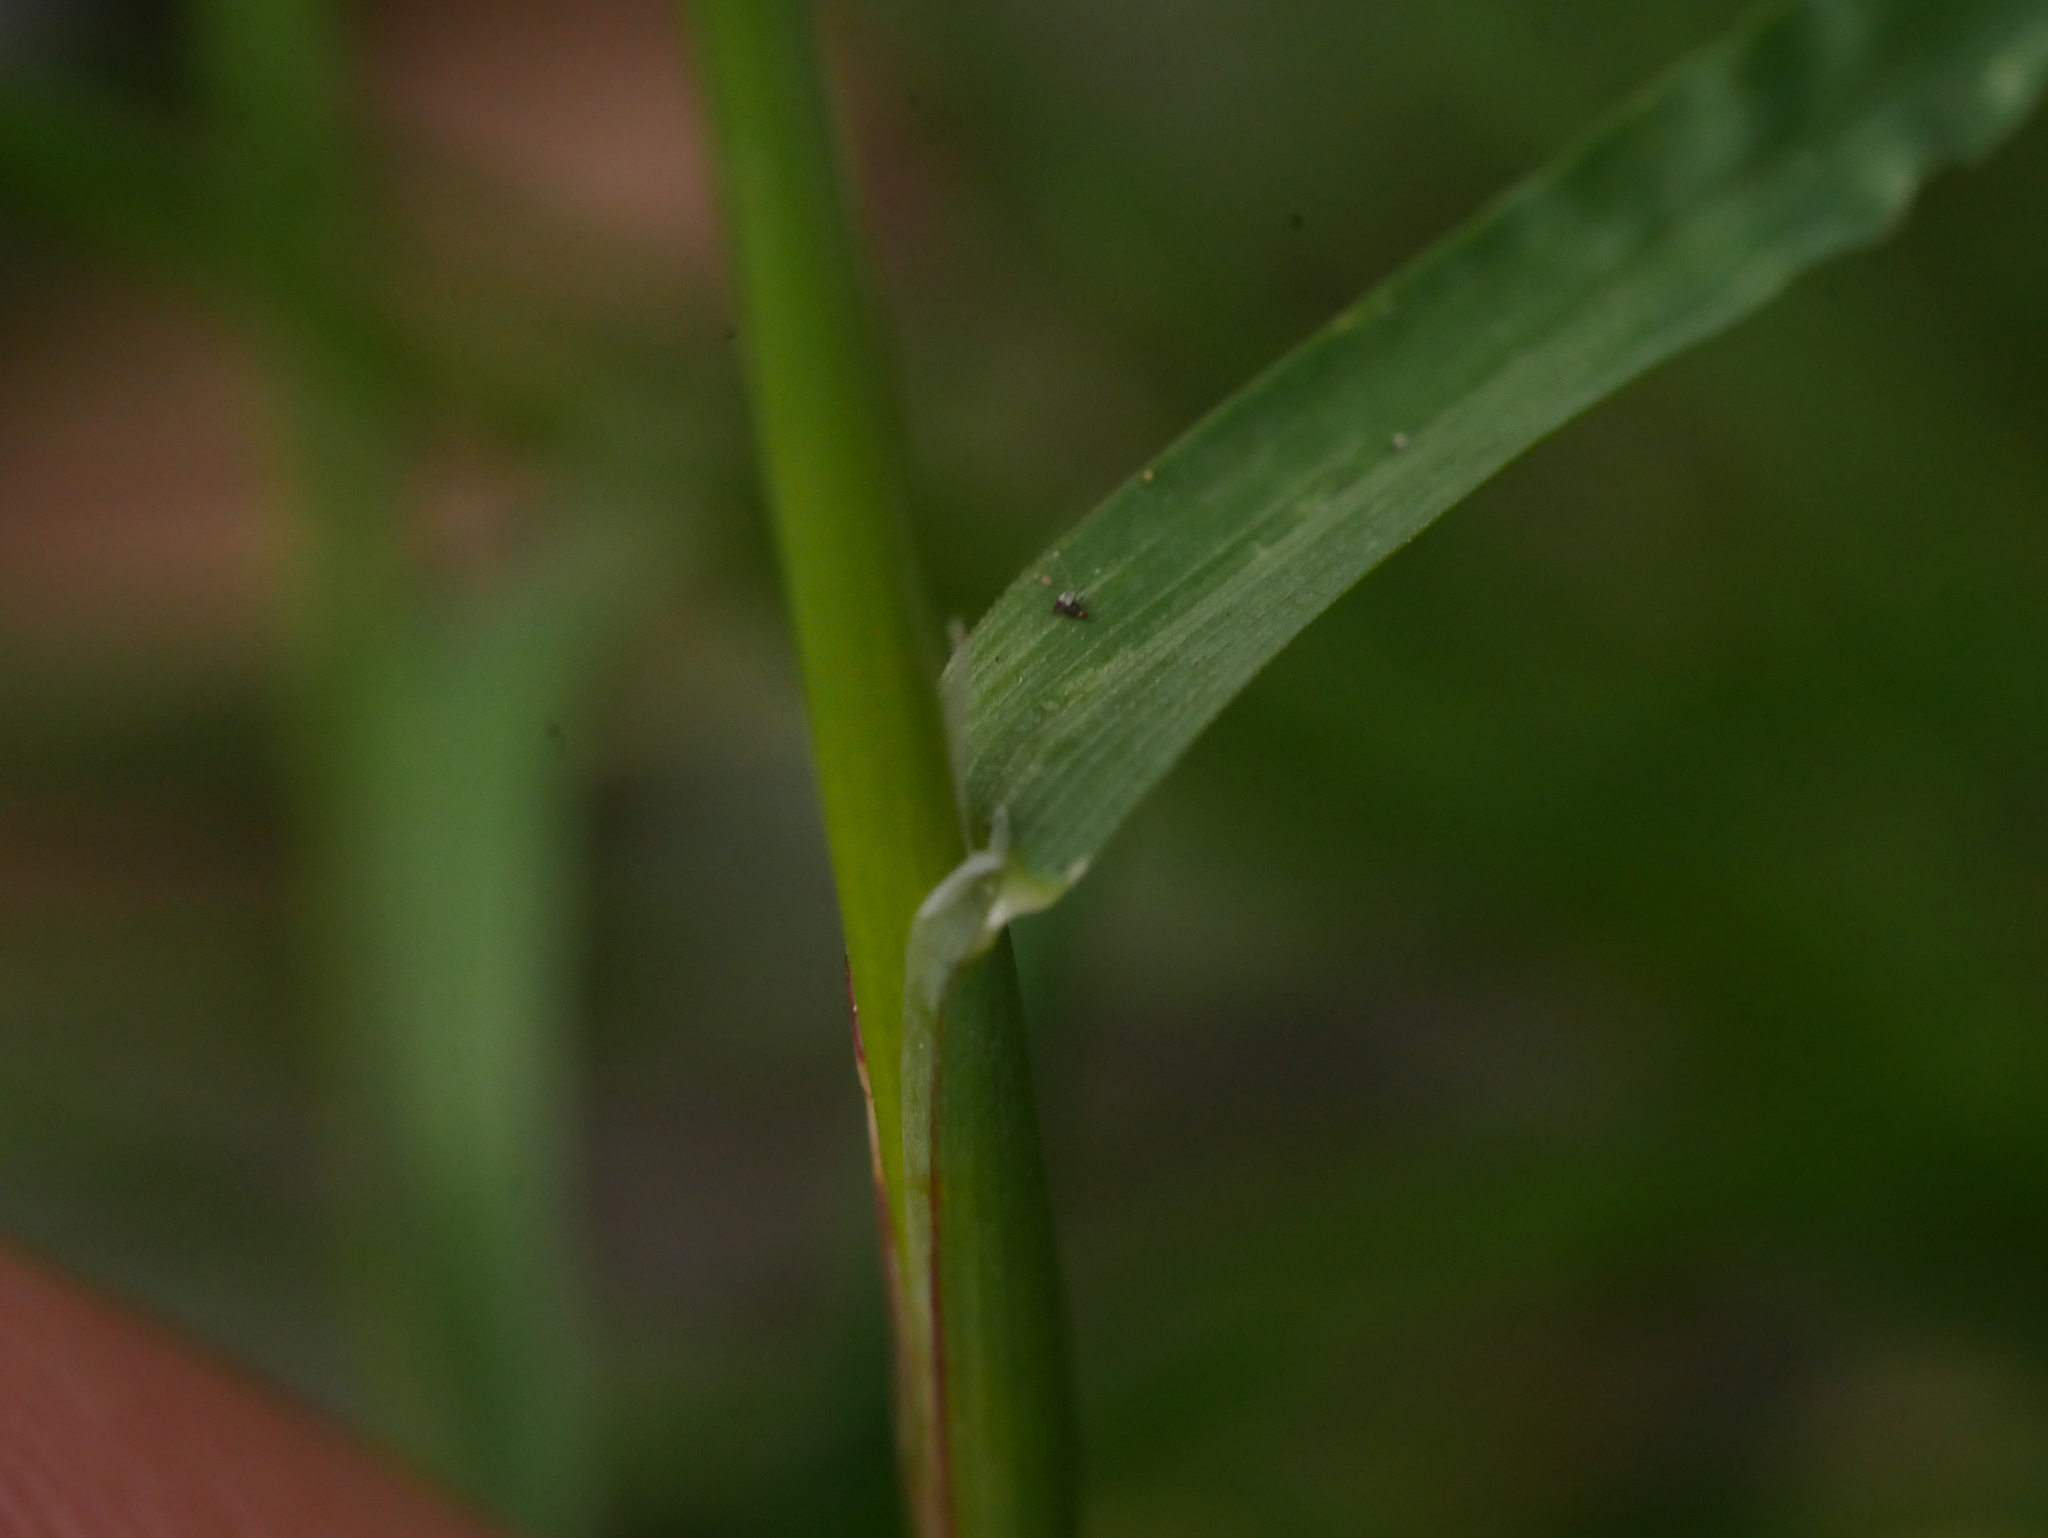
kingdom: Plantae
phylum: Tracheophyta
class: Liliopsida
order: Poales
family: Poaceae
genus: Poa
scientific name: Poa bulbosa
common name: Bulbous bluegrass
